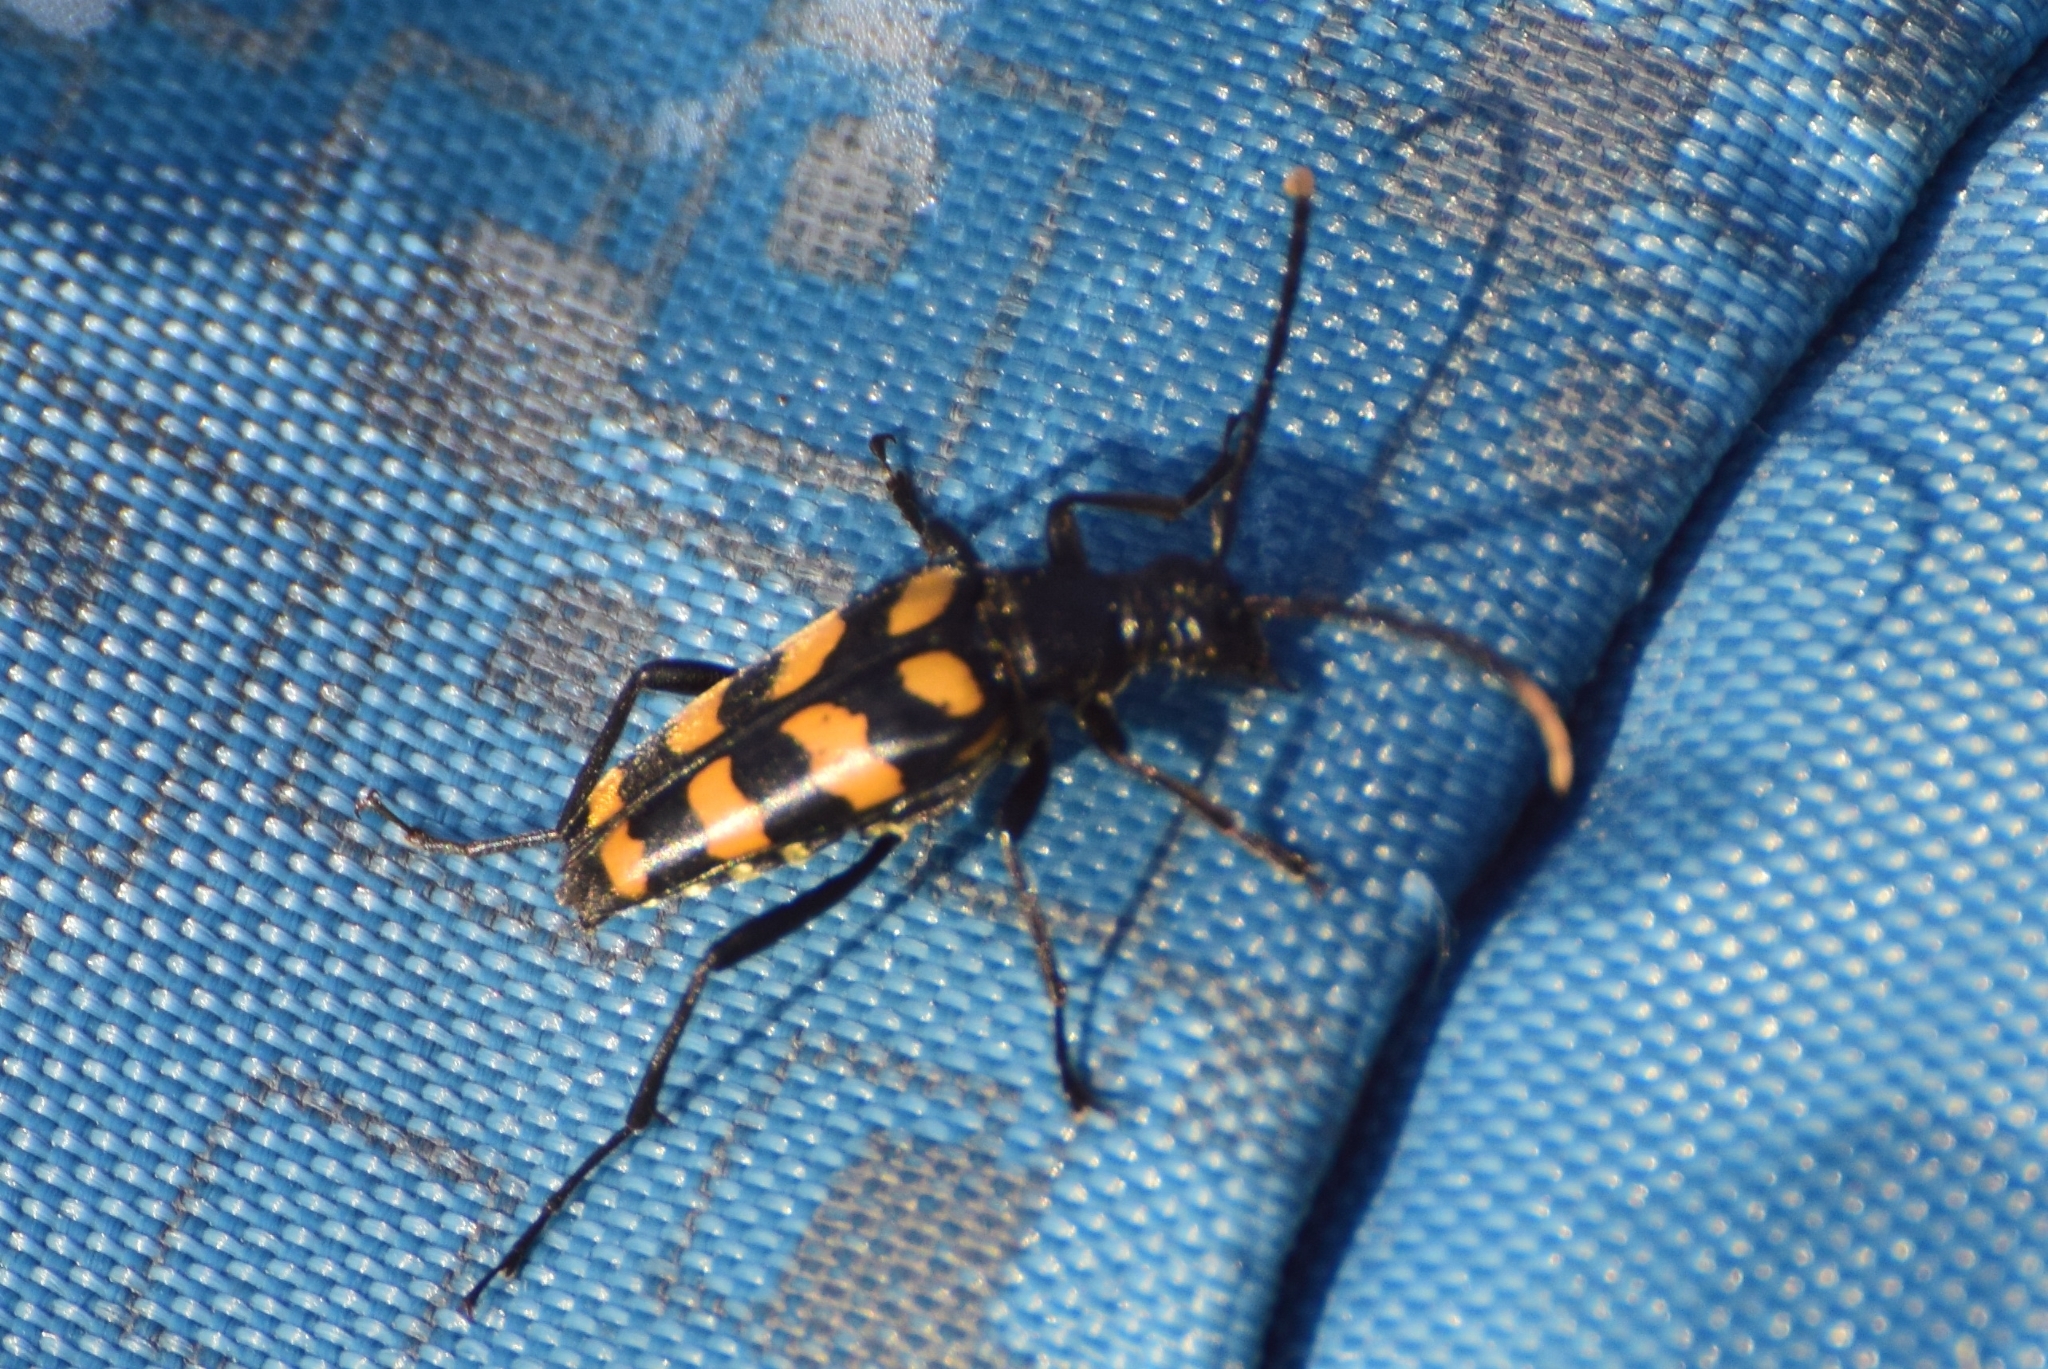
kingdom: Animalia
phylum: Arthropoda
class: Insecta
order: Coleoptera
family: Cerambycidae
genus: Leptura
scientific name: Leptura quadrifasciata
